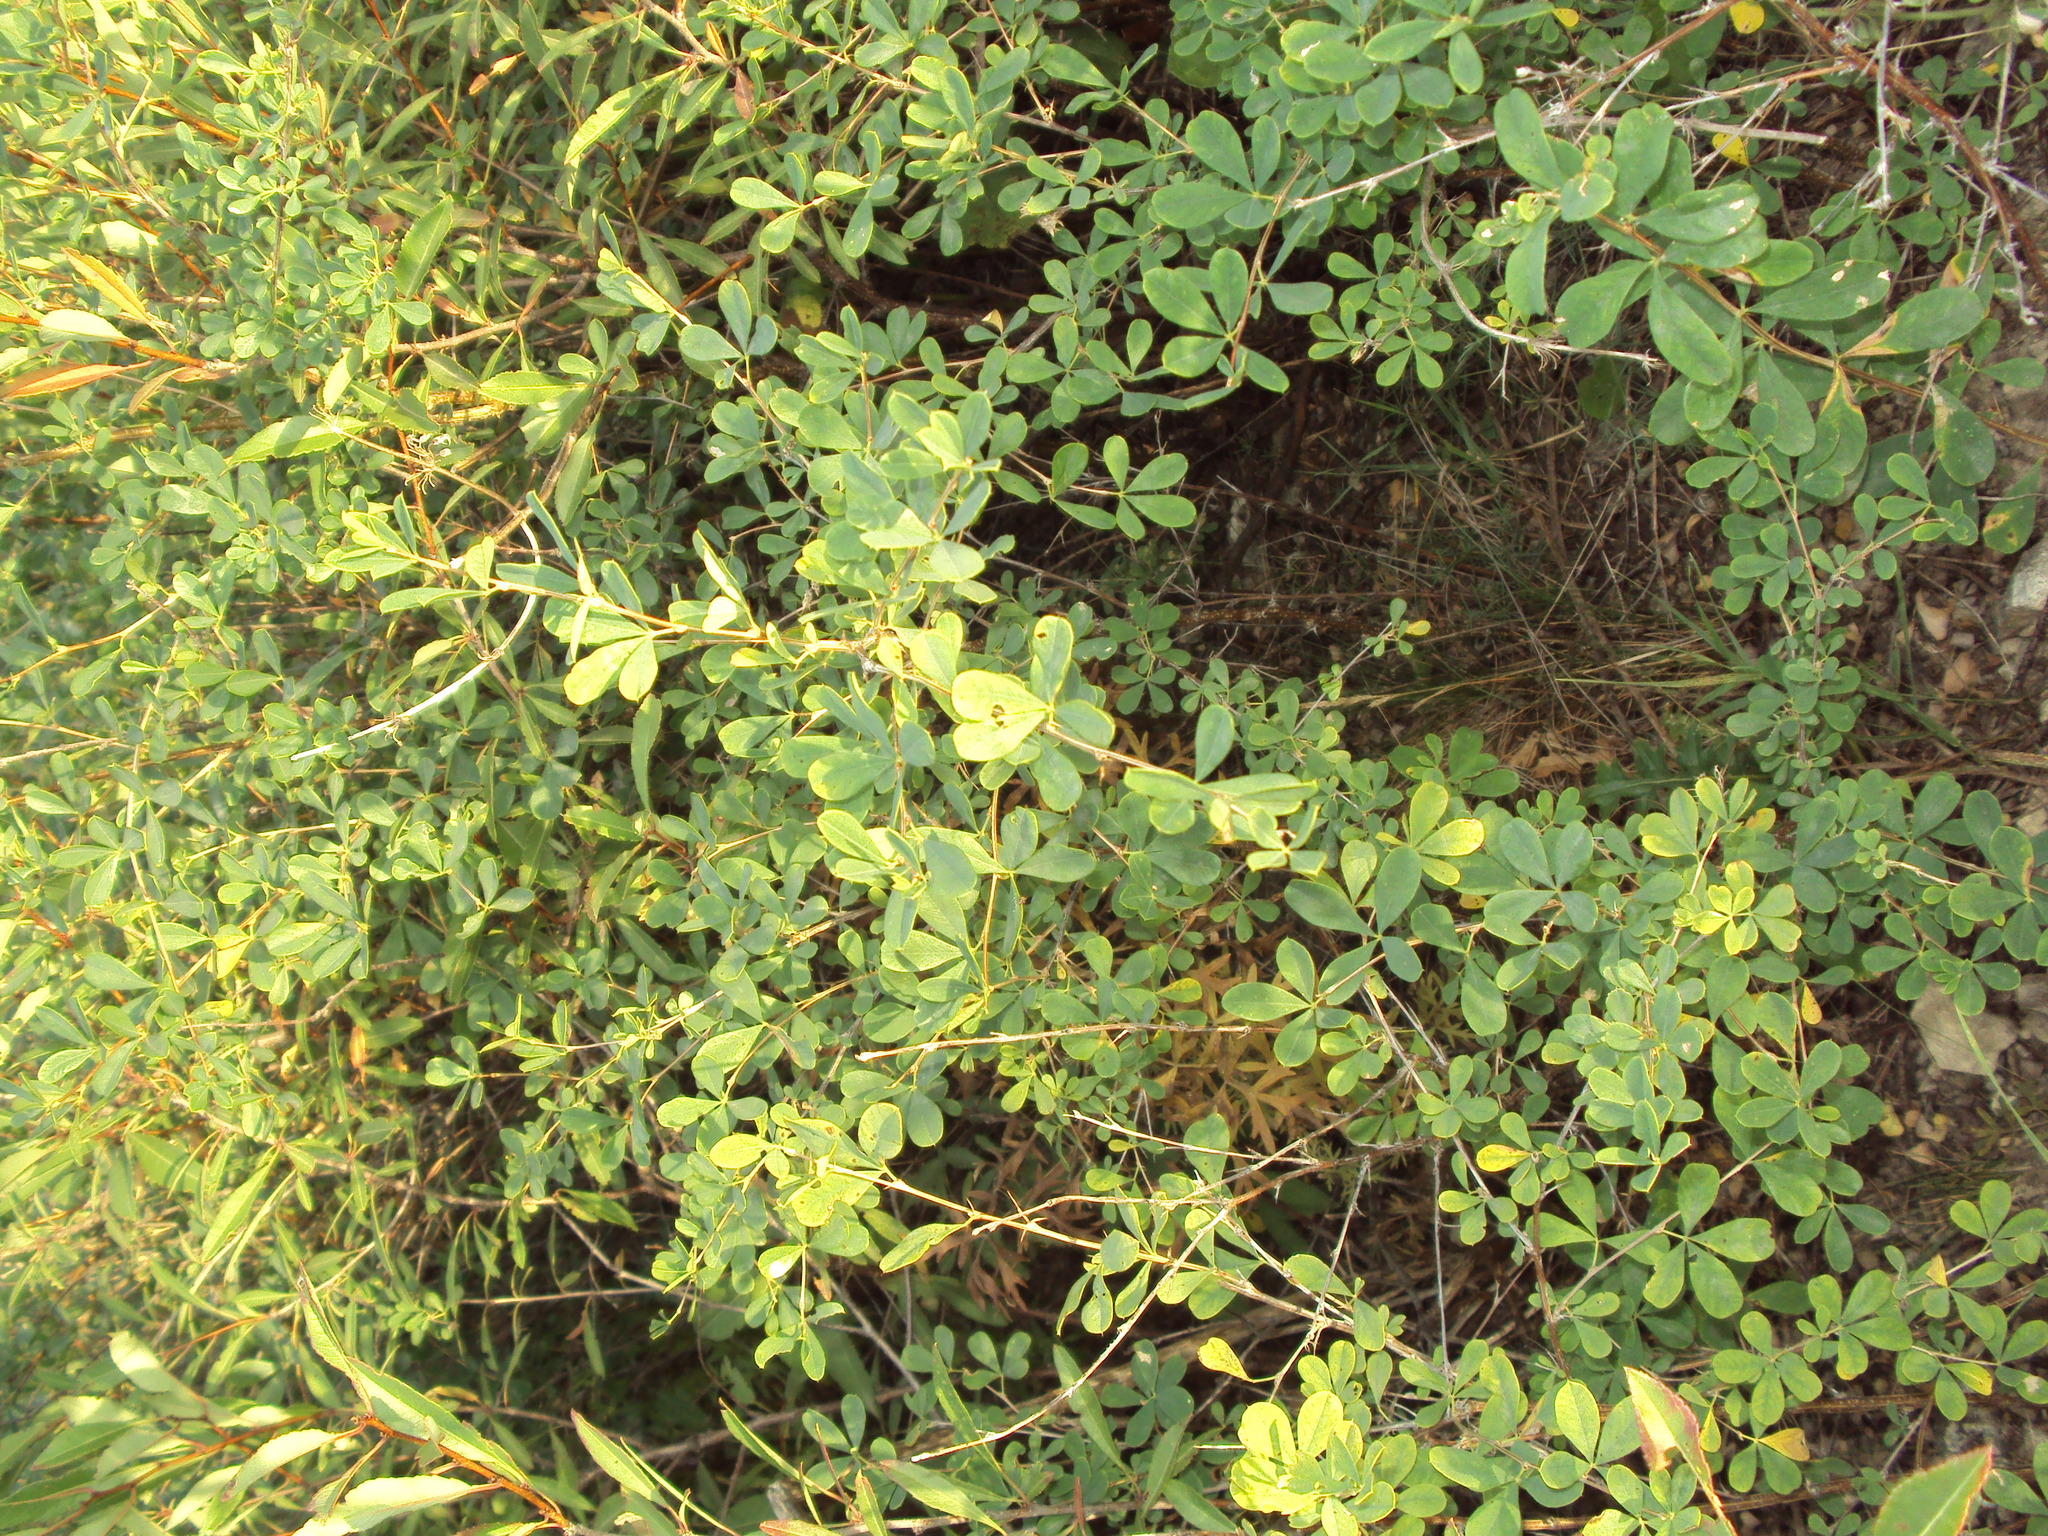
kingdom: Plantae
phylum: Tracheophyta
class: Magnoliopsida
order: Fabales
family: Fabaceae
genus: Caragana
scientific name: Caragana frutex
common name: Russian peashrub
